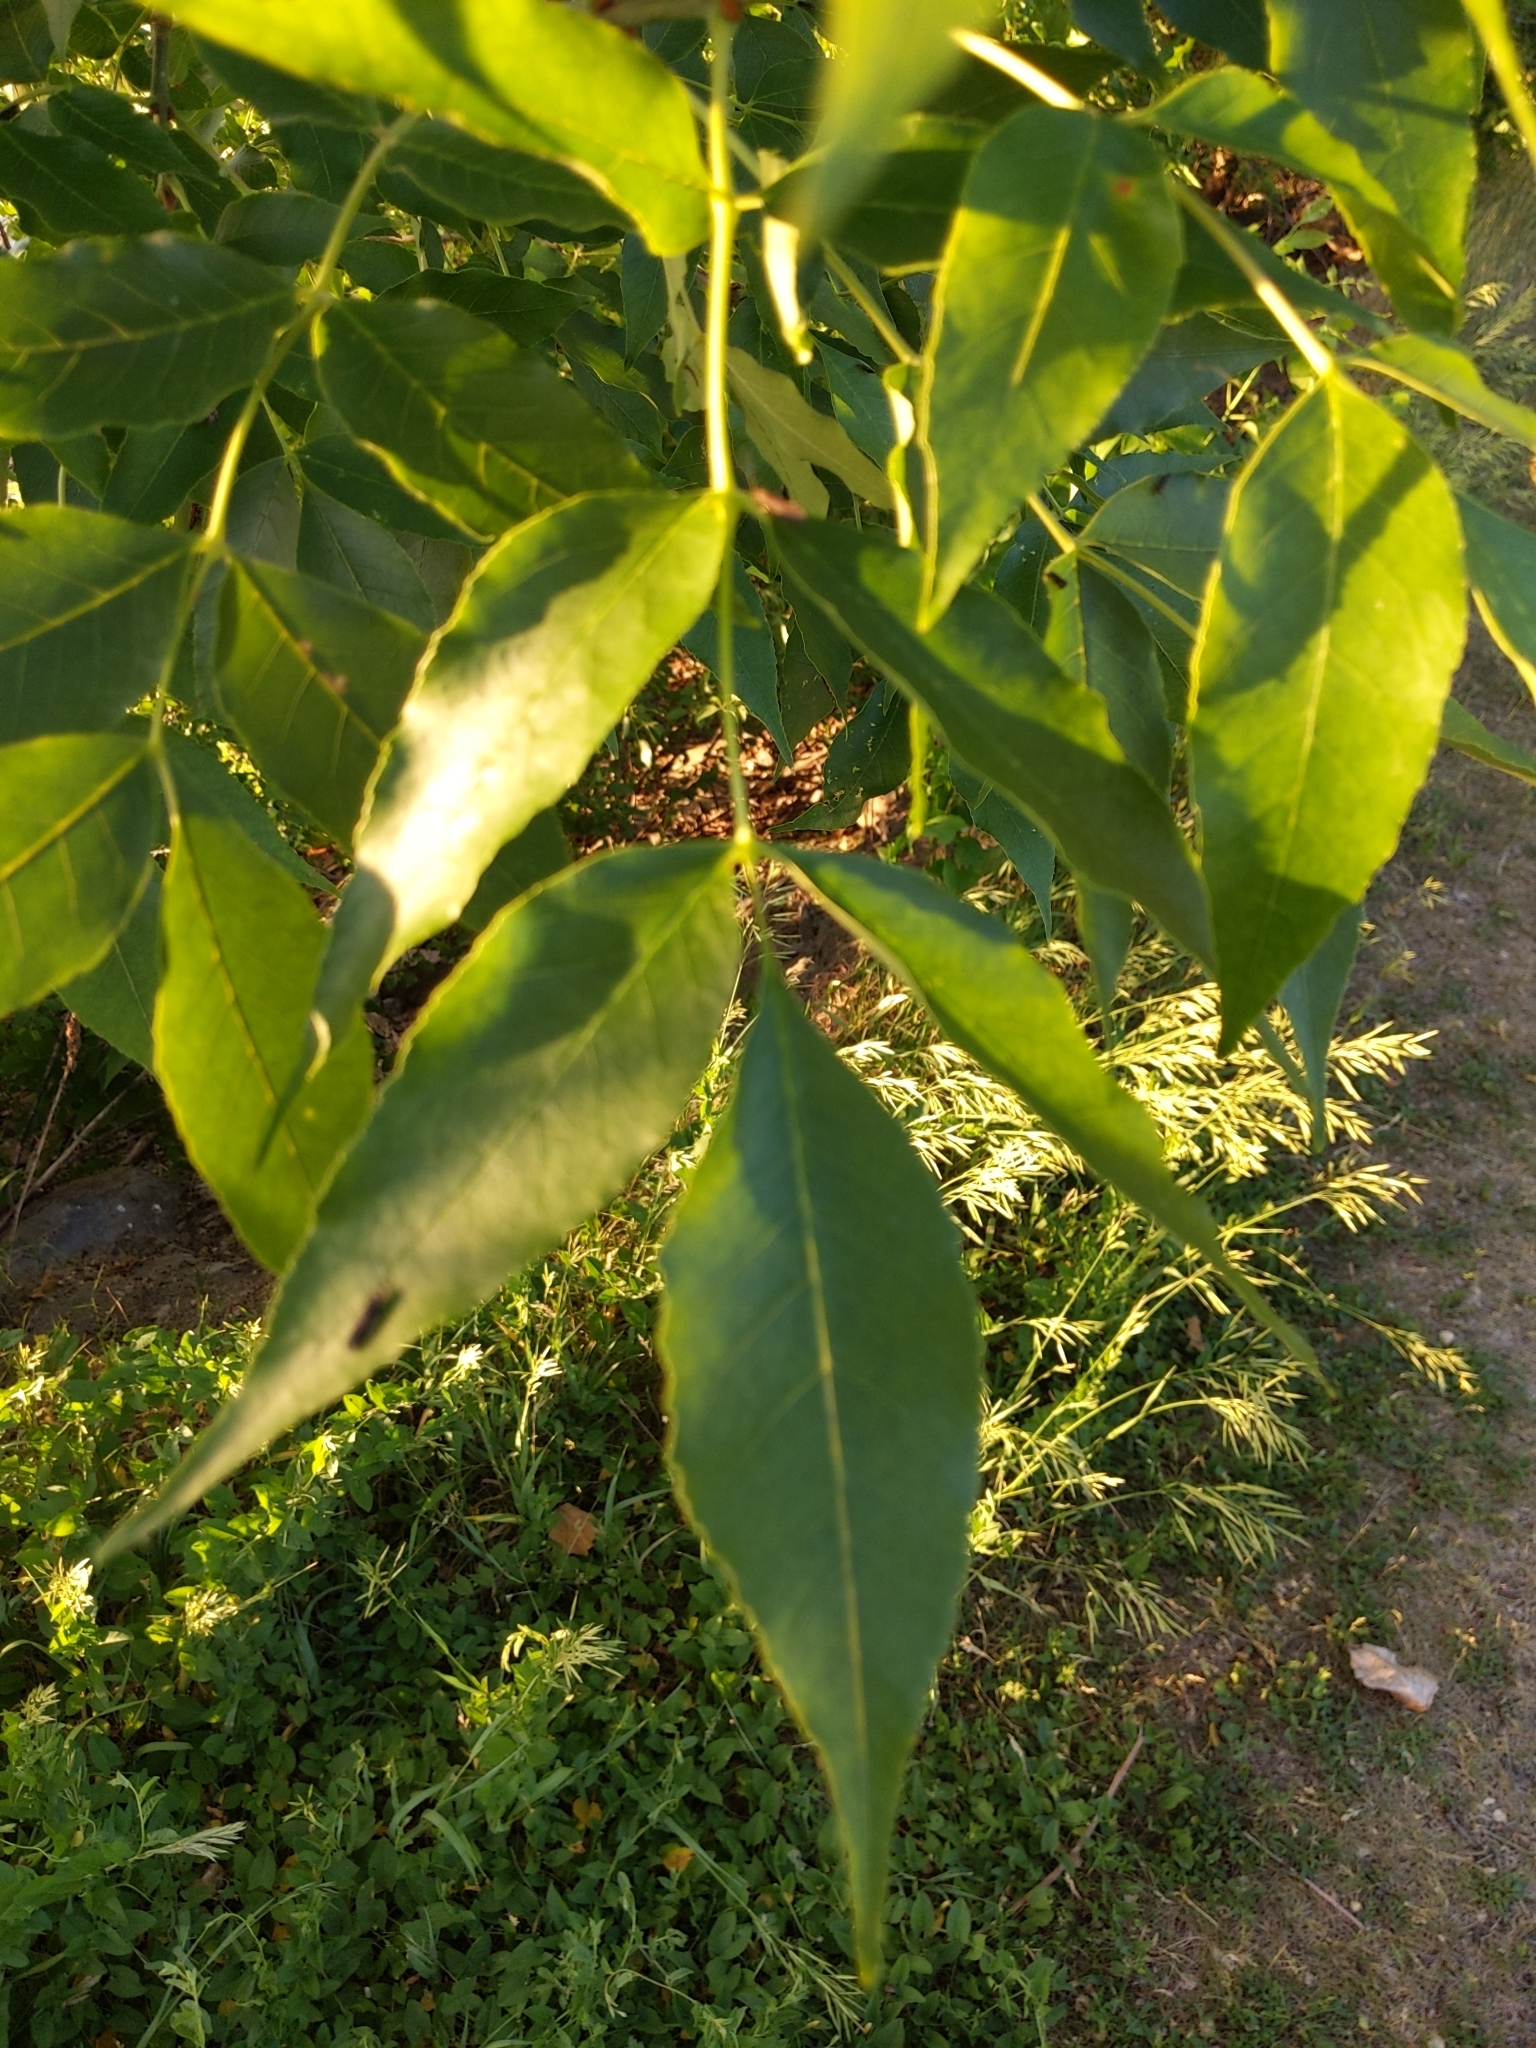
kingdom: Plantae
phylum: Tracheophyta
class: Magnoliopsida
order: Lamiales
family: Oleaceae
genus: Fraxinus
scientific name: Fraxinus pennsylvanica
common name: Green ash
